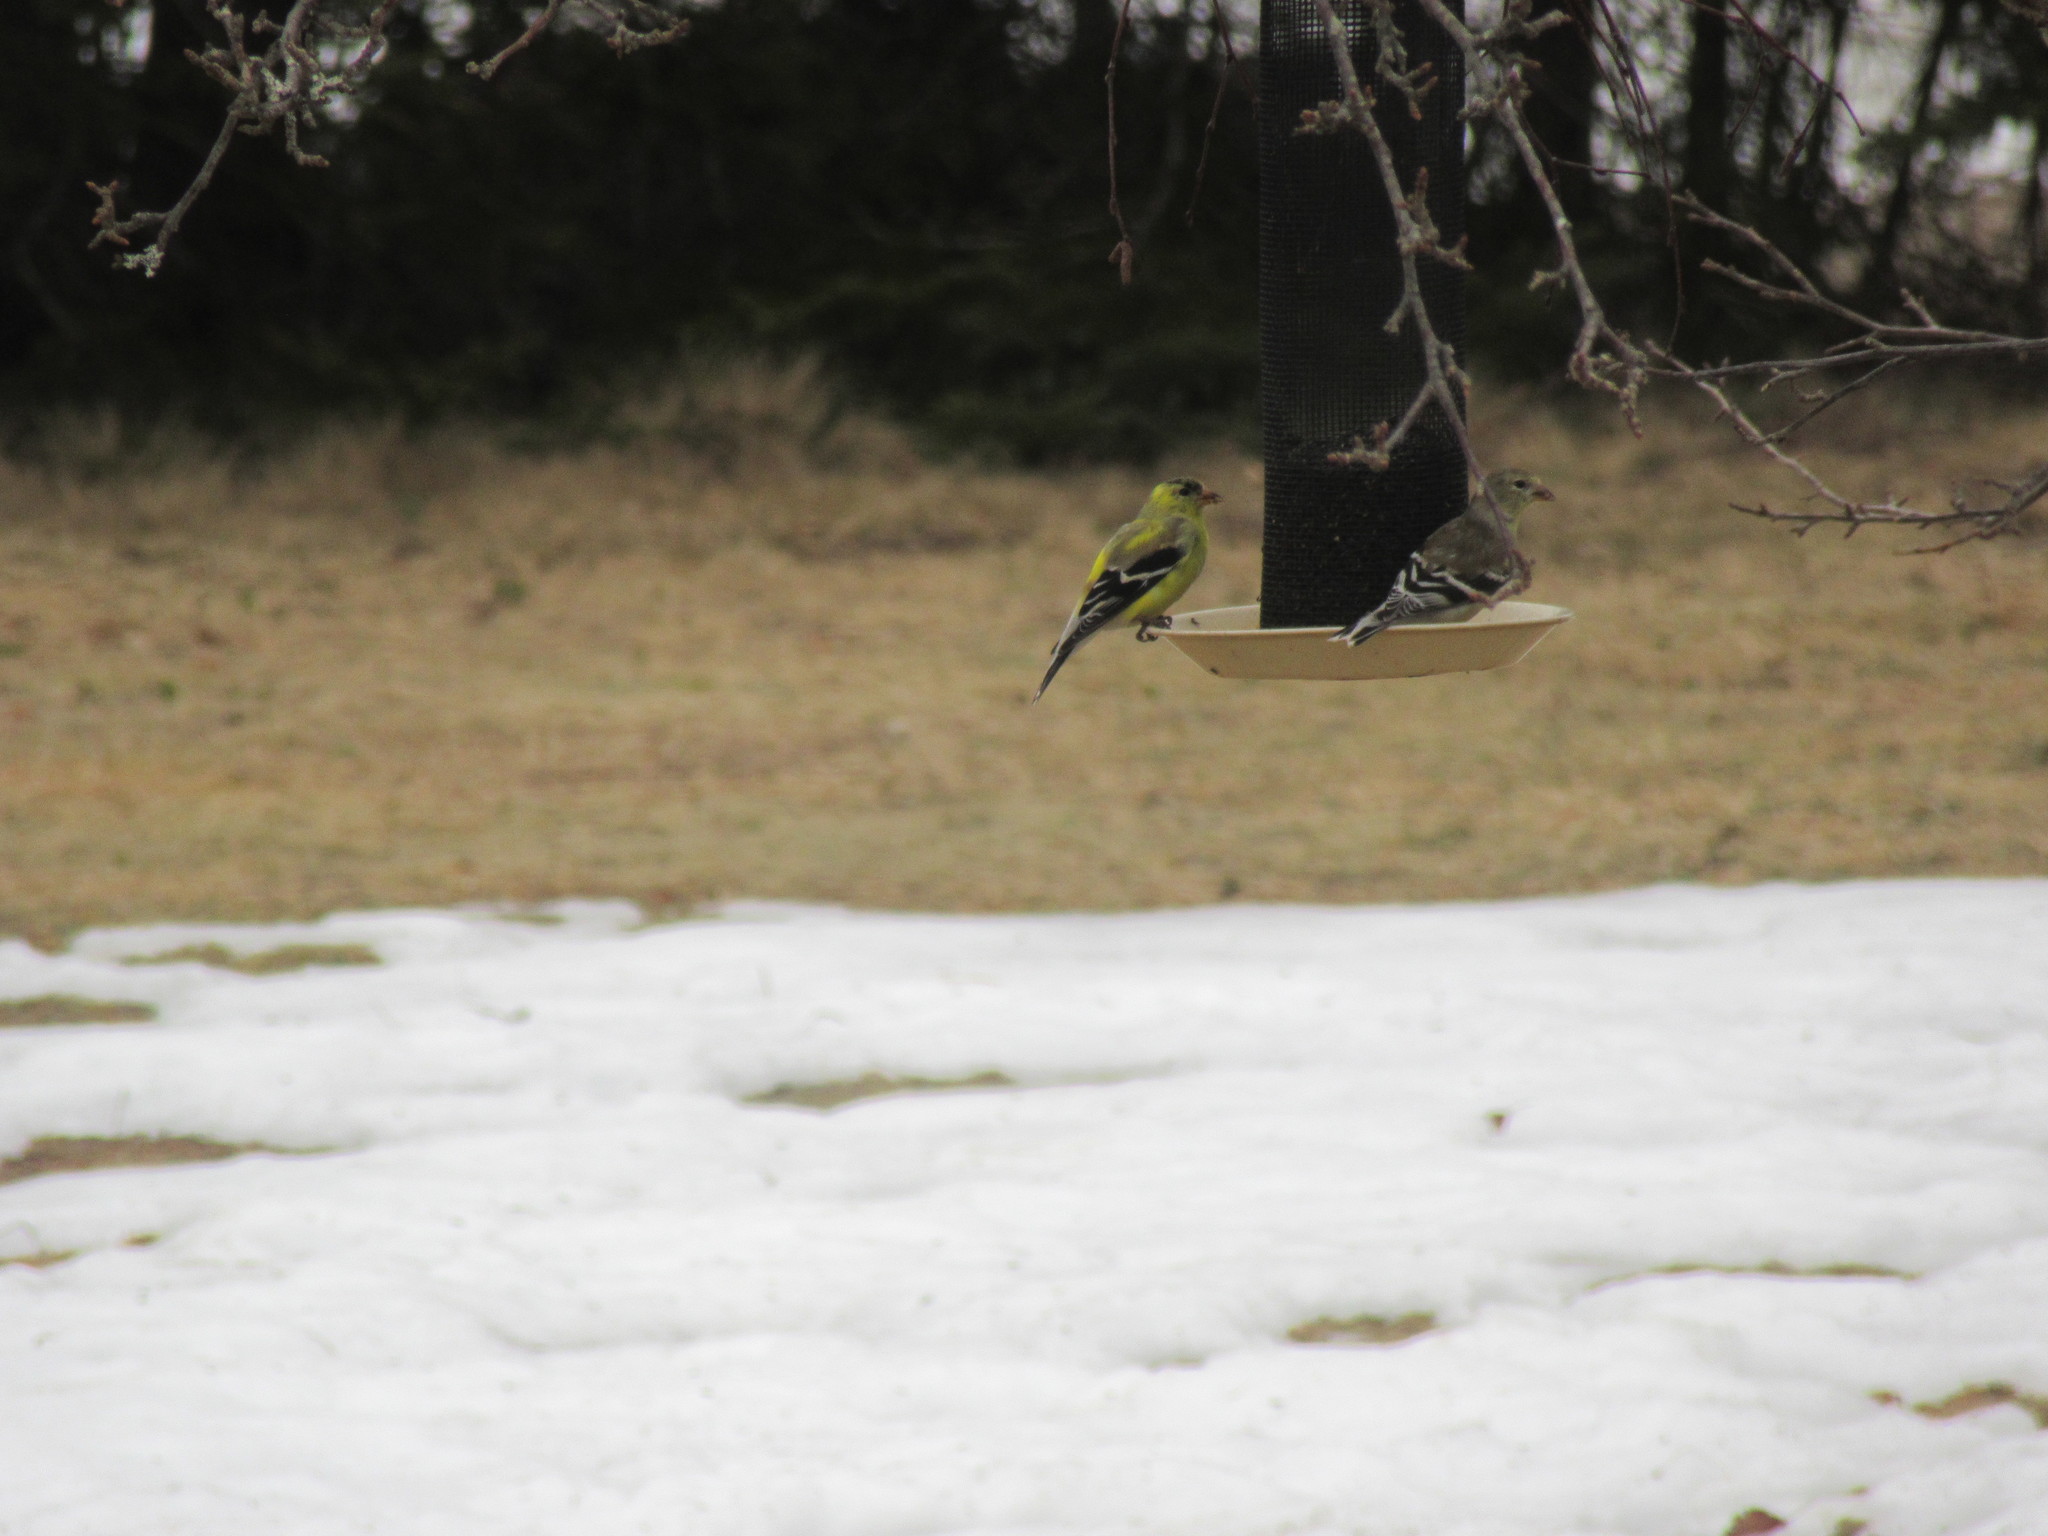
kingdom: Animalia
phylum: Chordata
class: Aves
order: Passeriformes
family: Fringillidae
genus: Spinus
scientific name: Spinus tristis
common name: American goldfinch
